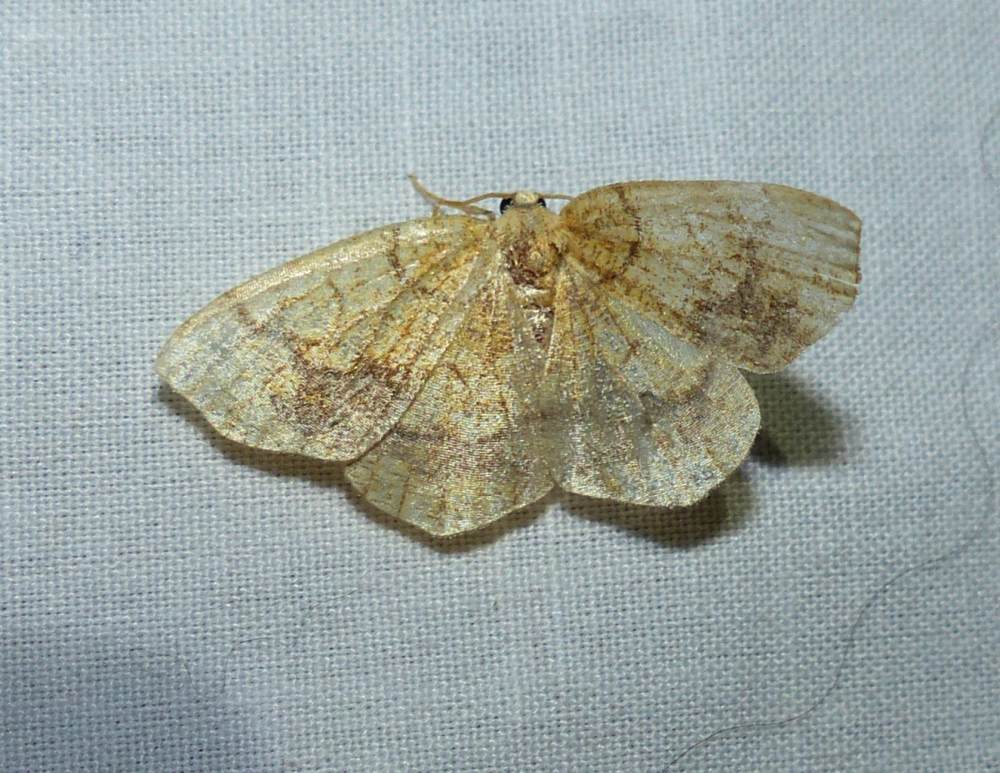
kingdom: Animalia
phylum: Arthropoda
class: Insecta
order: Lepidoptera
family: Geometridae
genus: Nematocampa
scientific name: Nematocampa resistaria
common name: Horned spanworm moth
